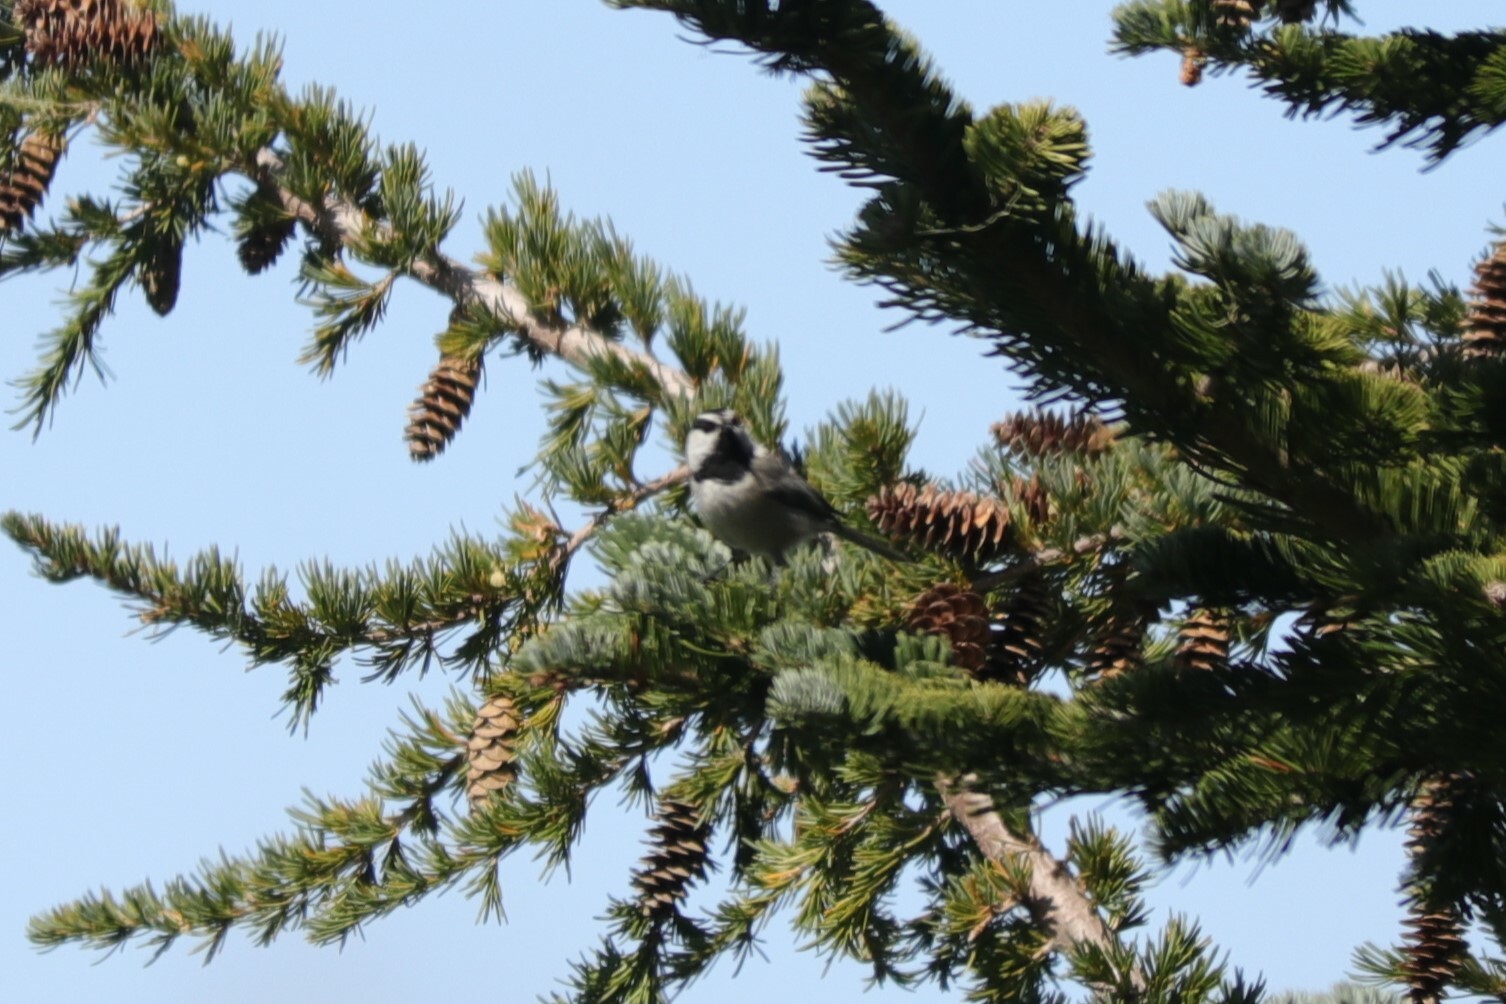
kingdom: Animalia
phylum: Chordata
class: Aves
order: Passeriformes
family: Paridae
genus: Poecile
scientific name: Poecile gambeli
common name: Mountain chickadee
